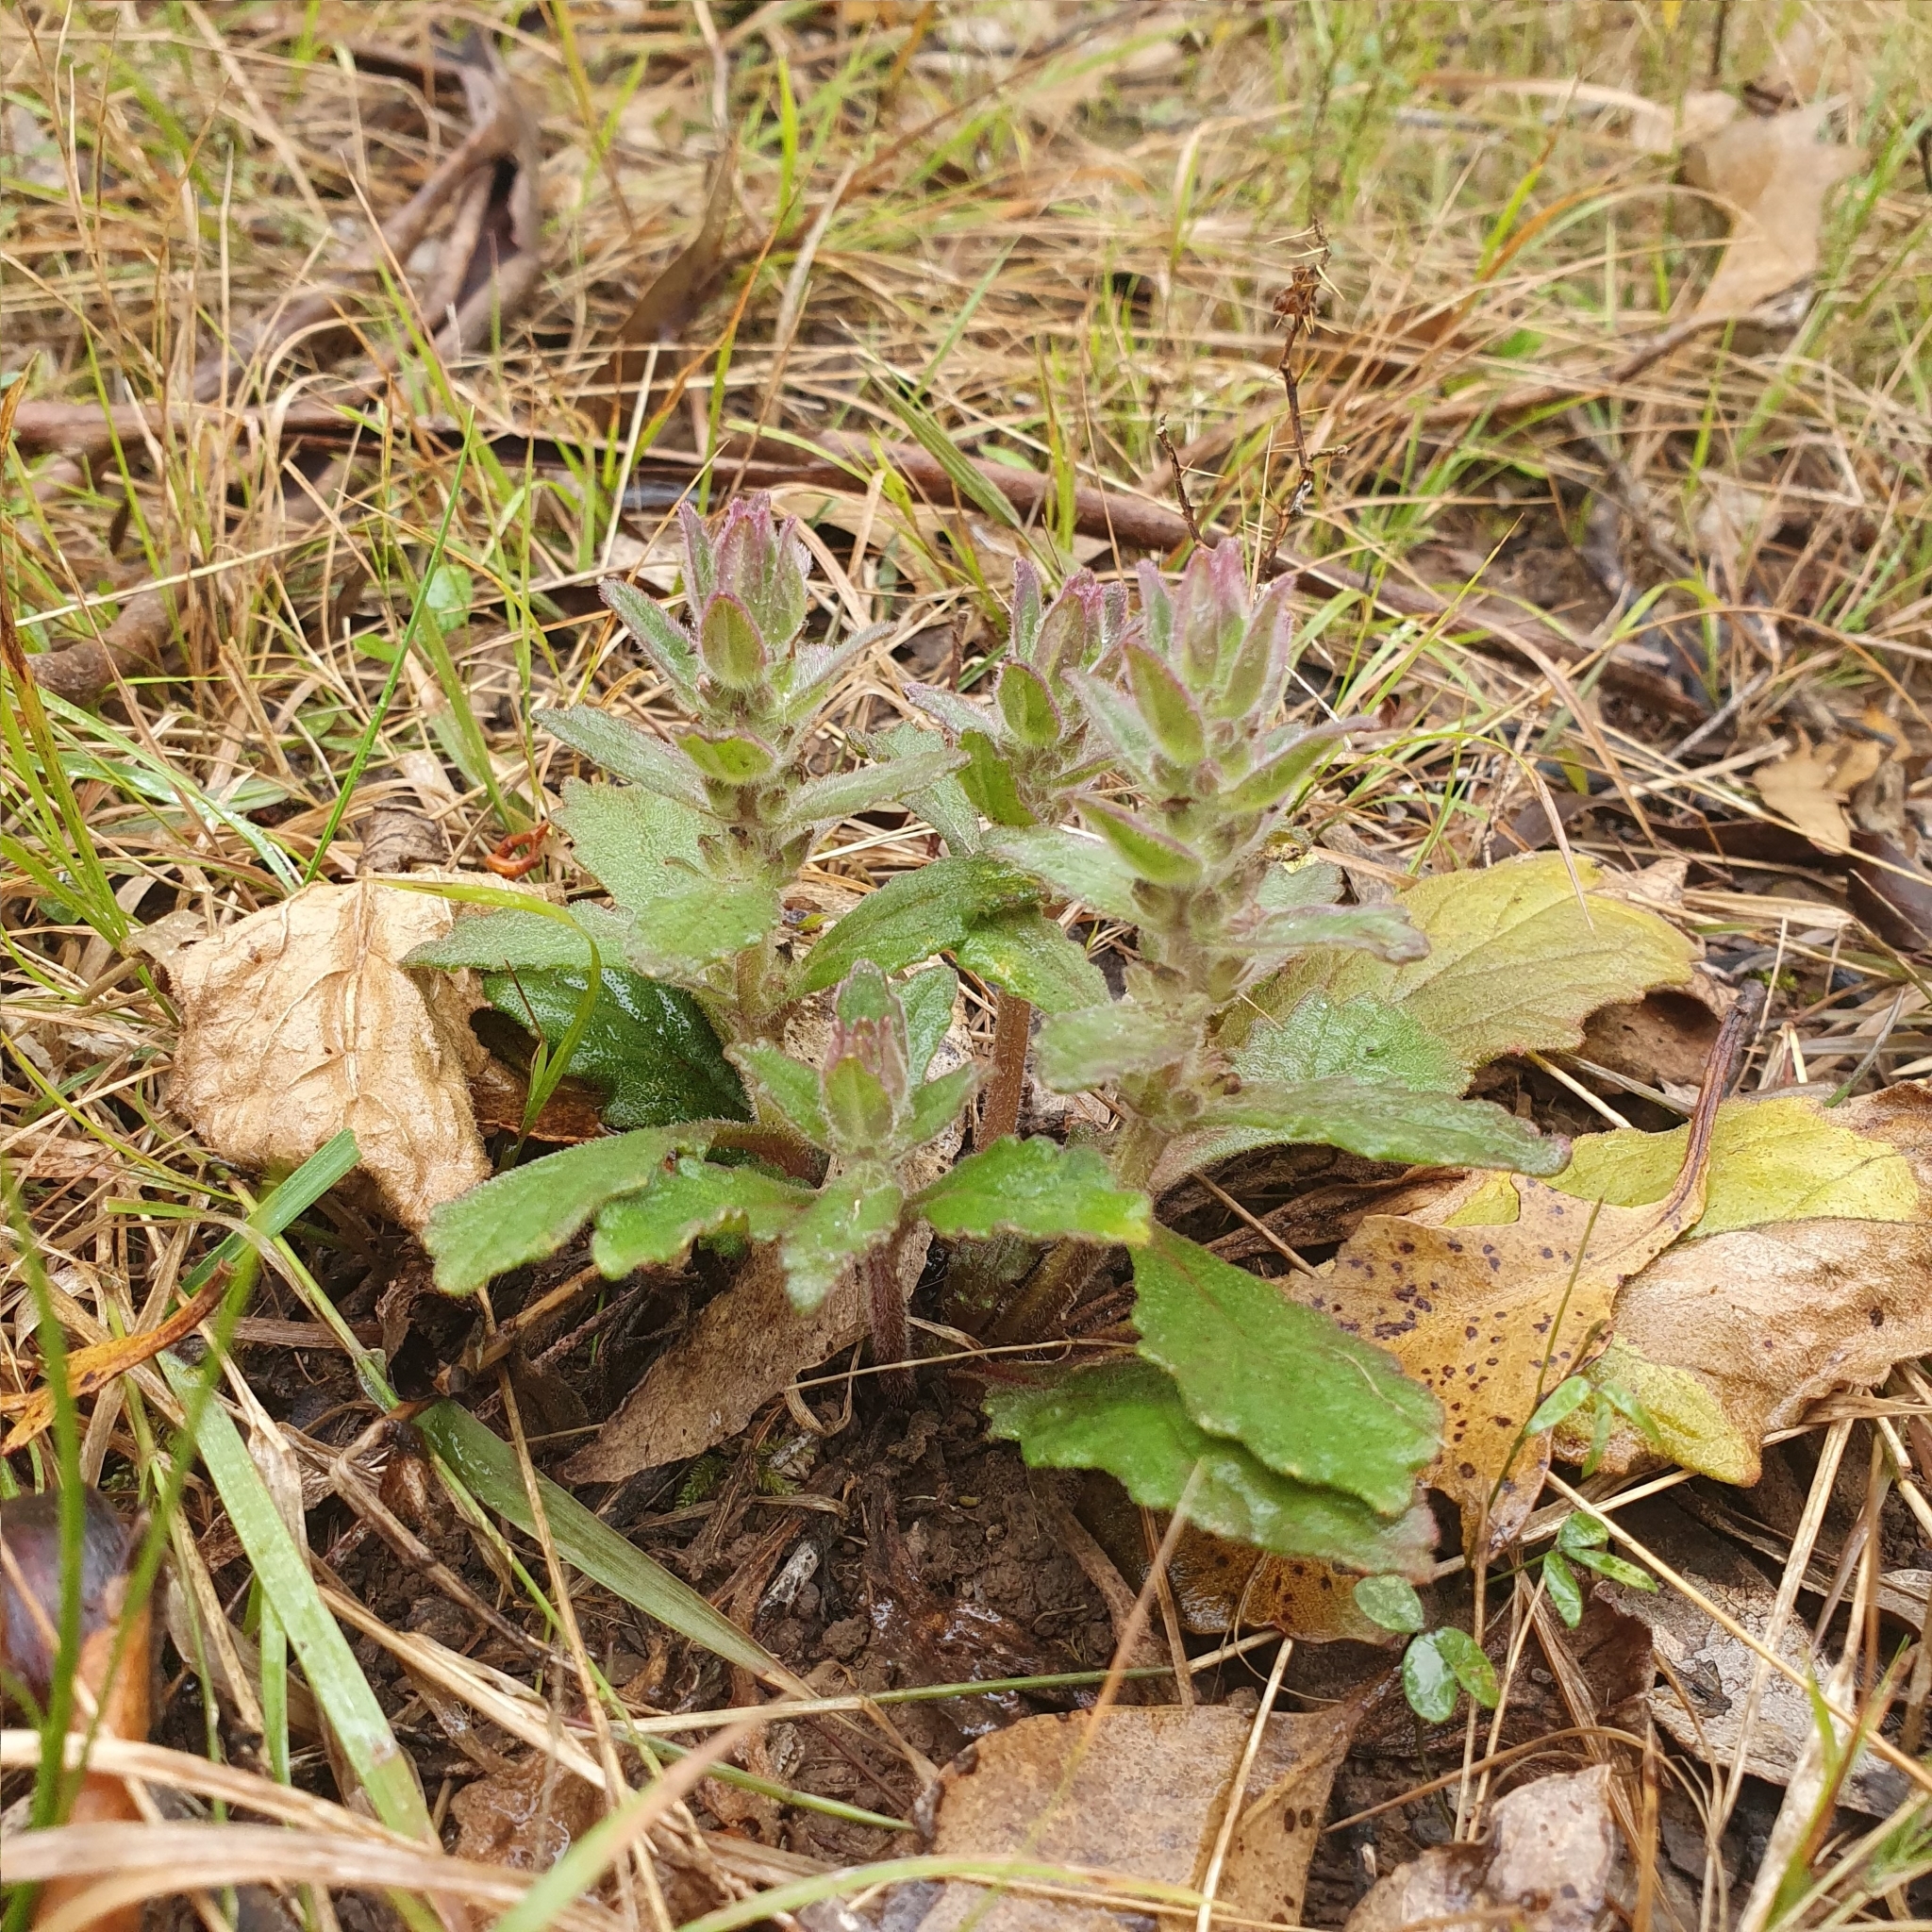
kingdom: Plantae
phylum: Tracheophyta
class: Magnoliopsida
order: Lamiales
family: Lamiaceae
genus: Ajuga
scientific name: Ajuga australis
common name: Australian bugle
